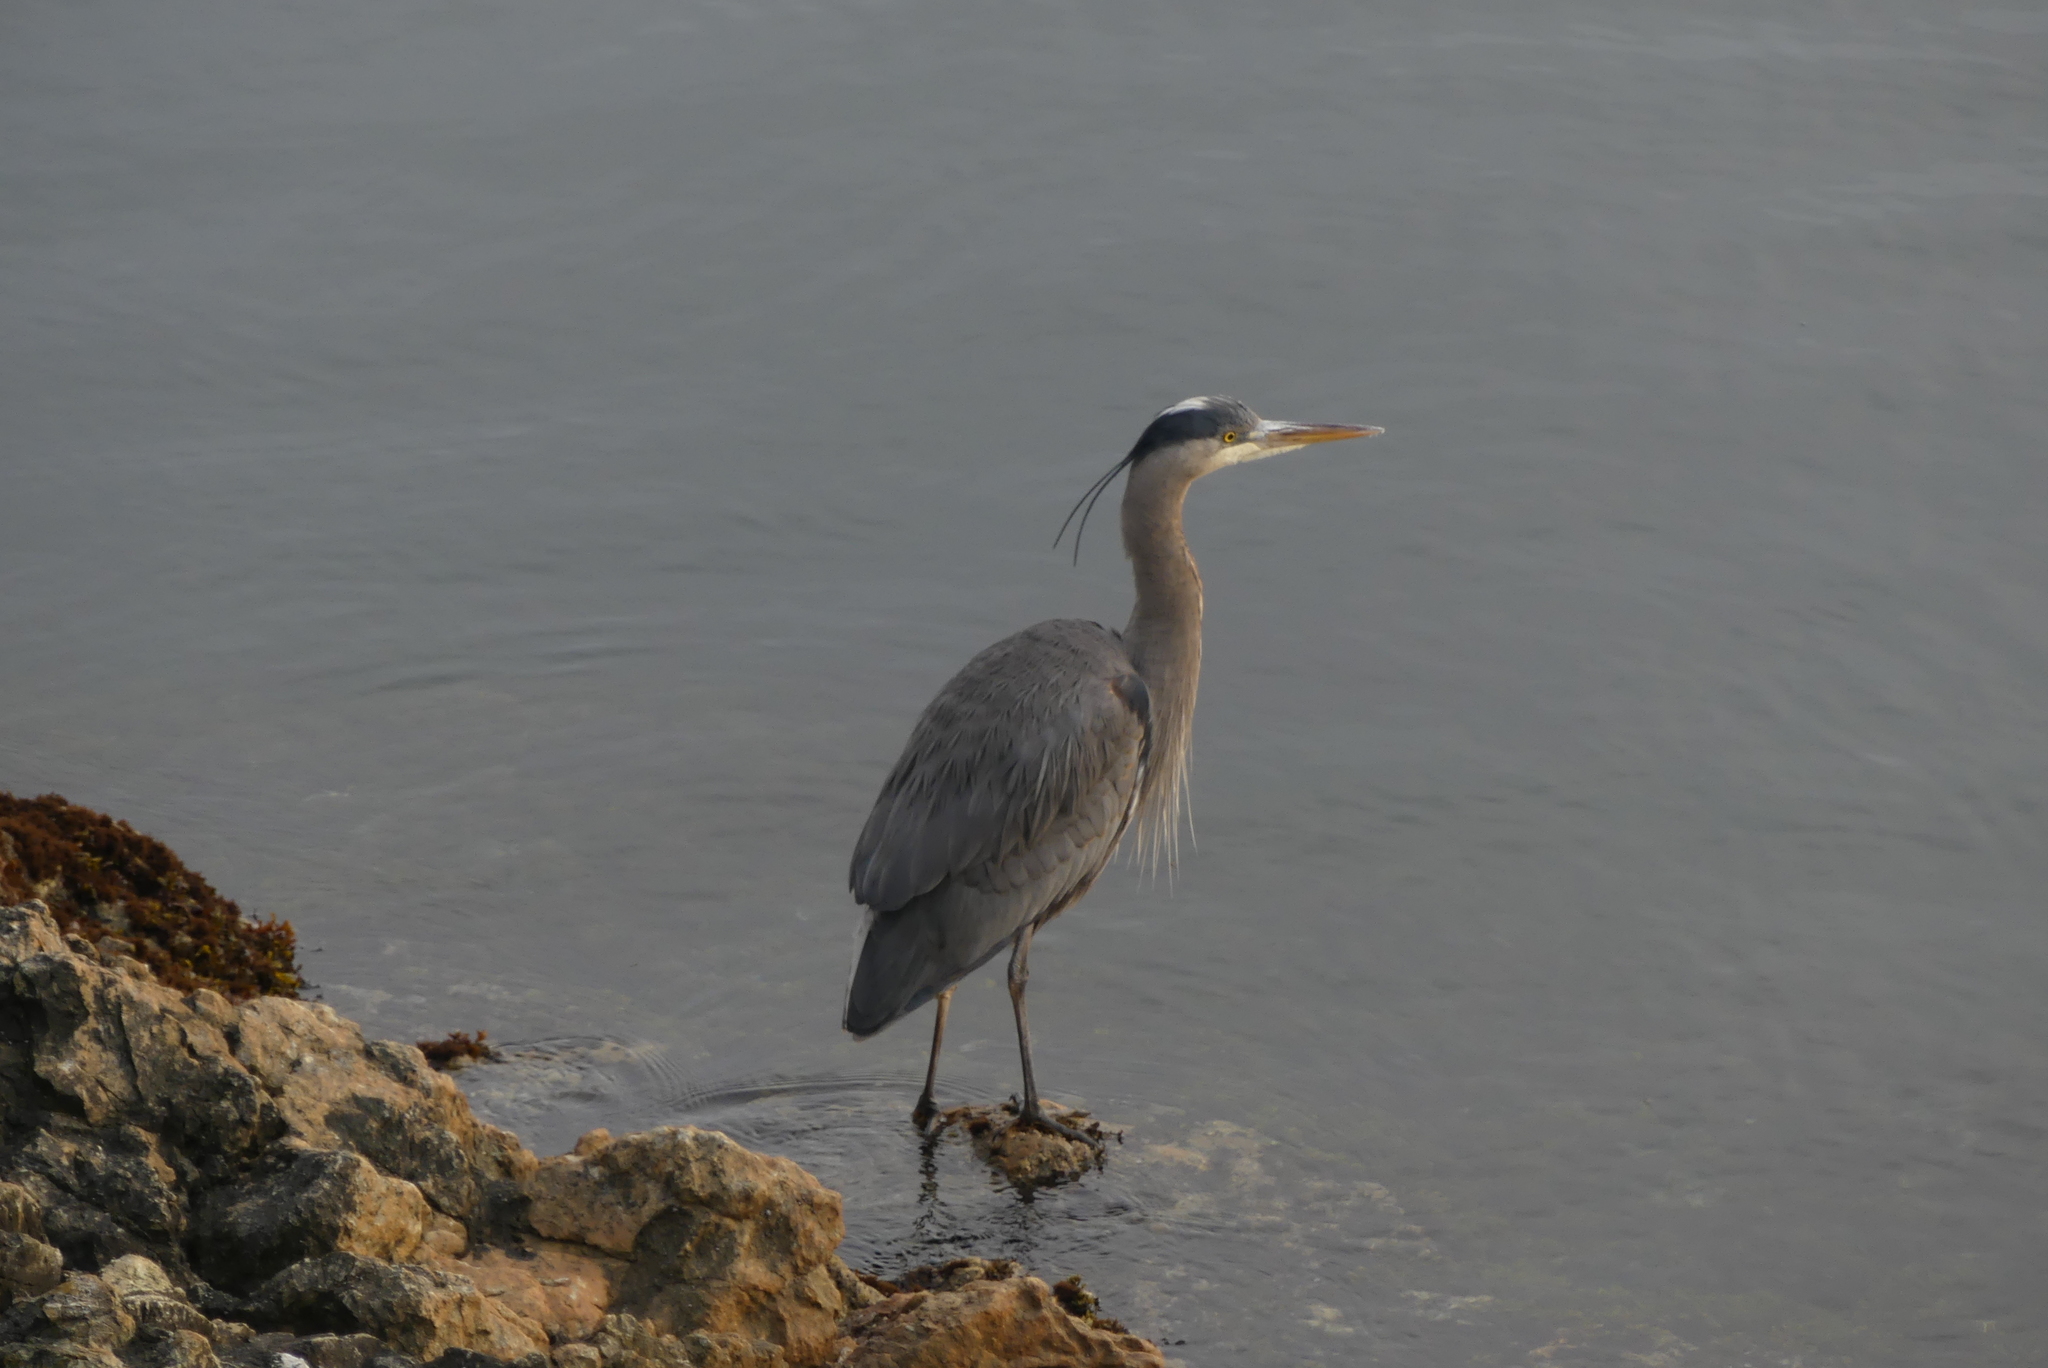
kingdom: Animalia
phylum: Chordata
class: Aves
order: Pelecaniformes
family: Ardeidae
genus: Ardea
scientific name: Ardea herodias
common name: Great blue heron
